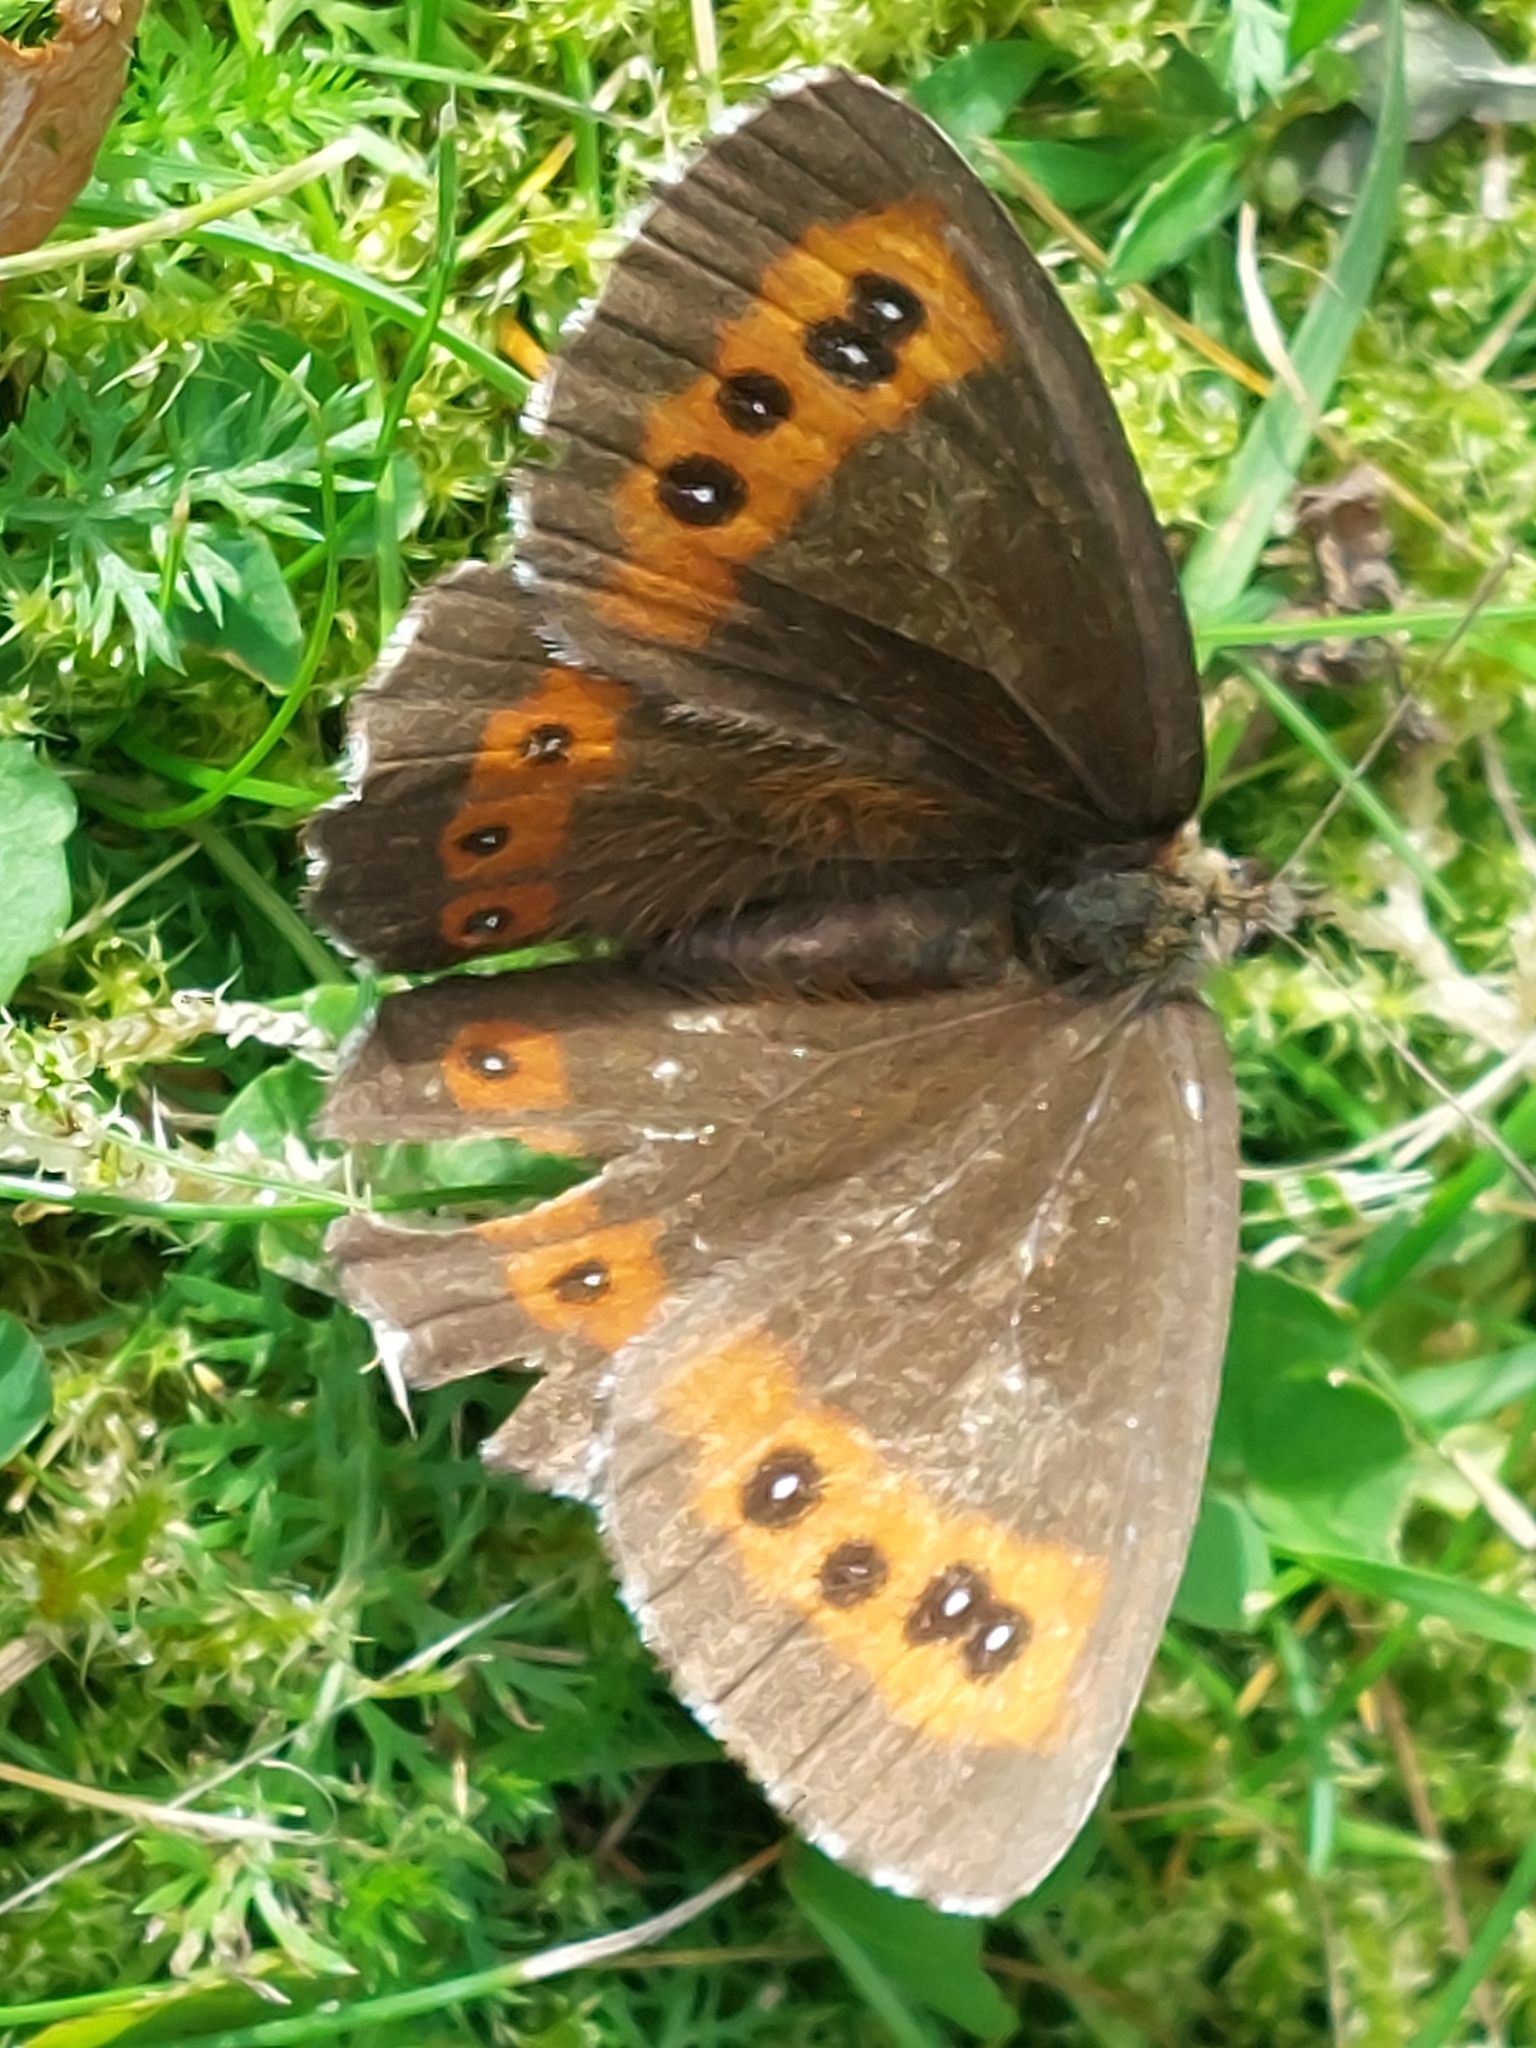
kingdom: Animalia
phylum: Arthropoda
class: Insecta
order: Lepidoptera
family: Nymphalidae
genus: Erebia
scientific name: Erebia ligea
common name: Arran brown
